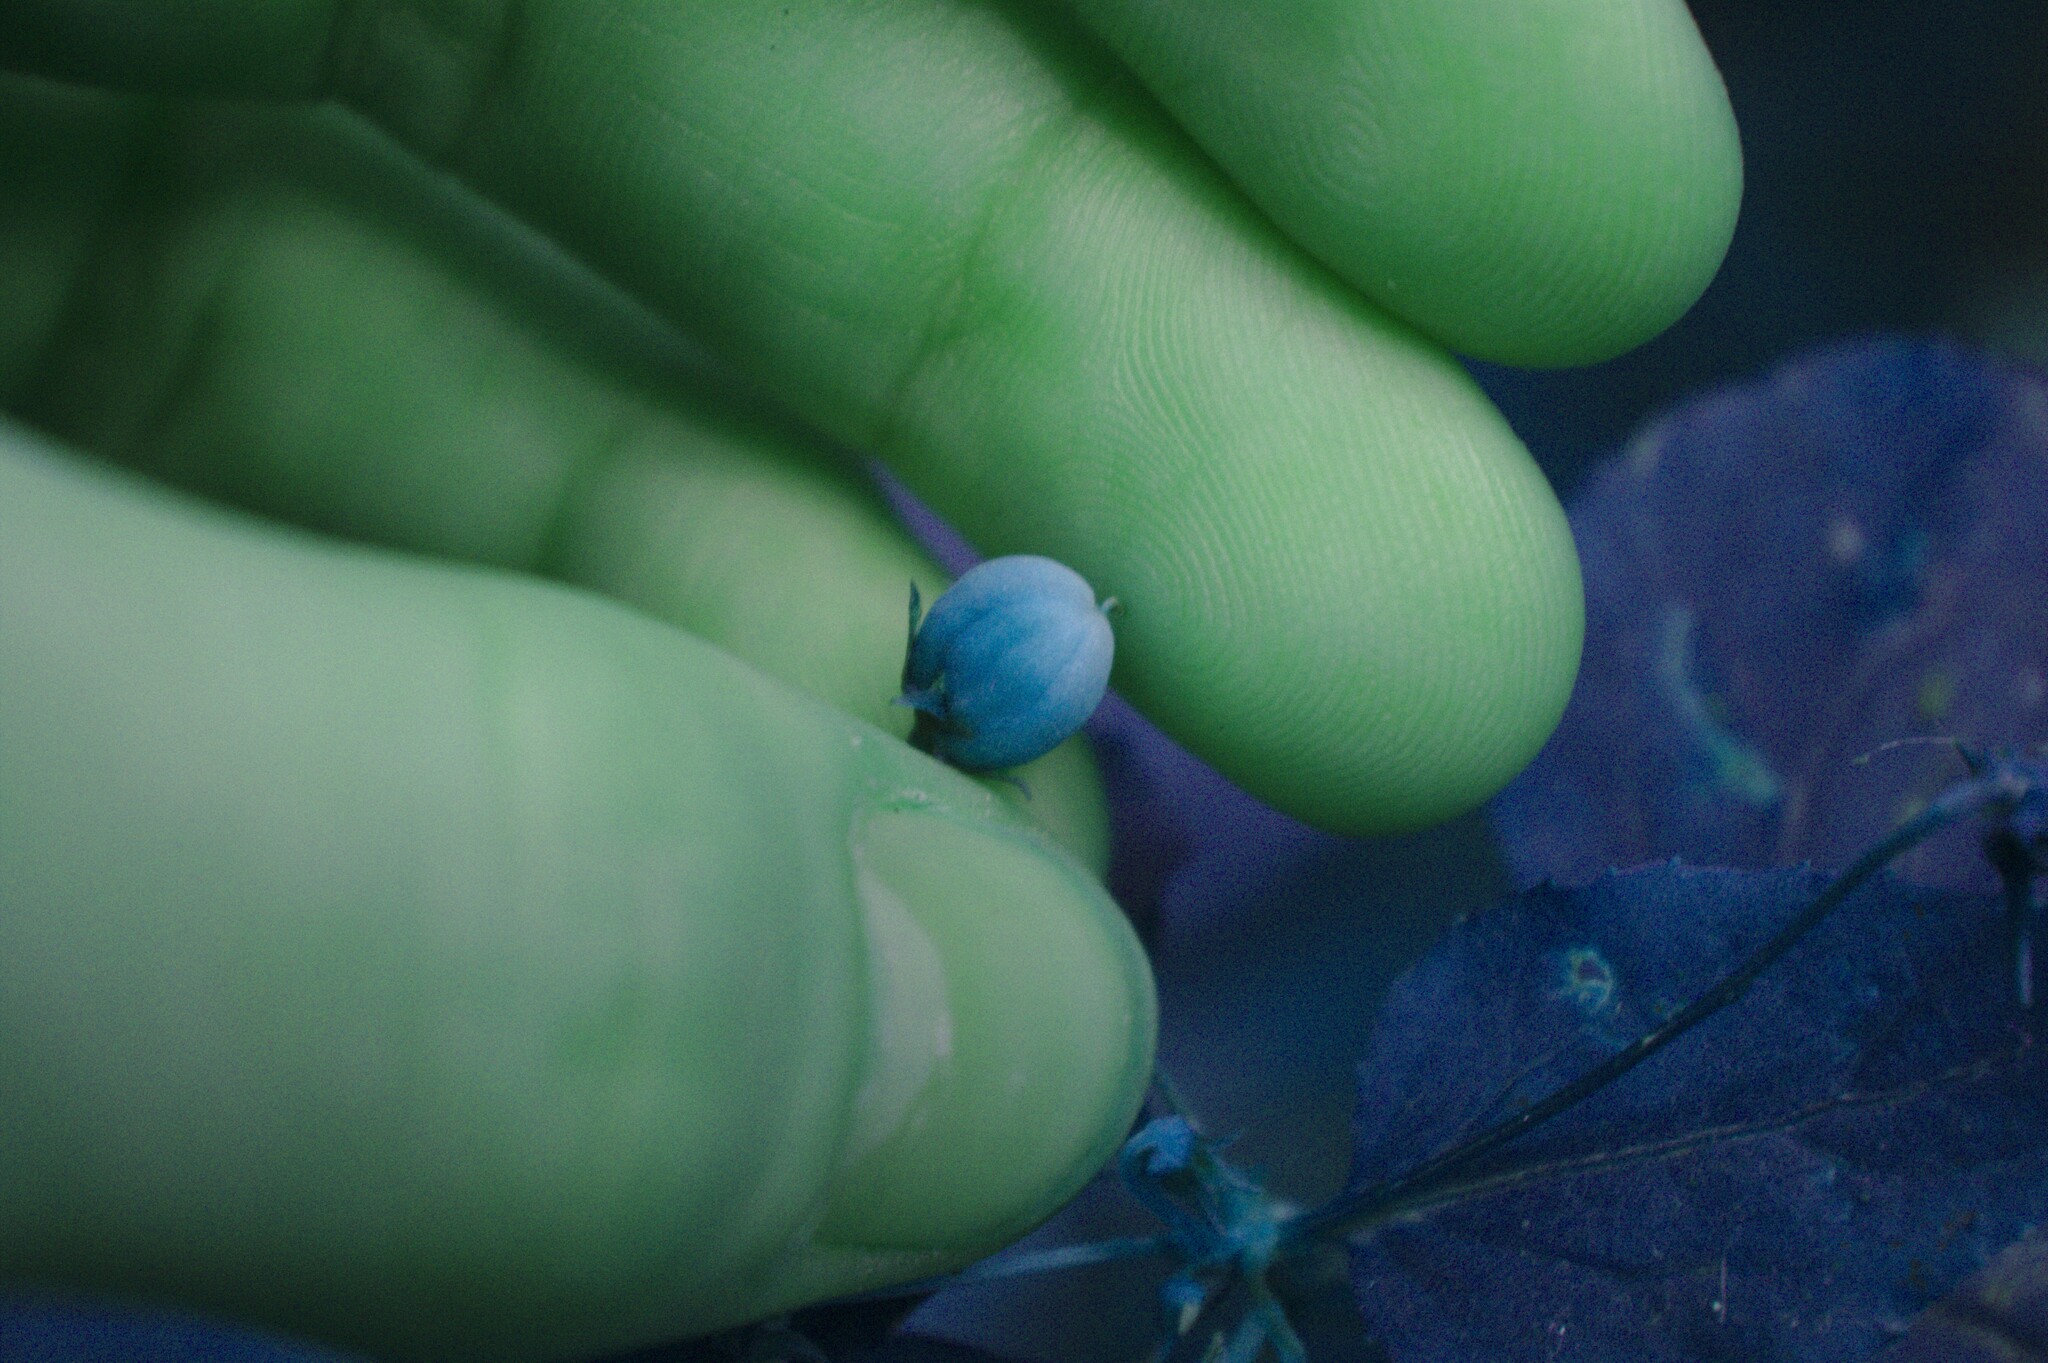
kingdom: Plantae
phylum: Tracheophyta
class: Magnoliopsida
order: Malpighiales
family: Violaceae
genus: Viola
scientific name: Viola canadensis
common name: Canada violet
